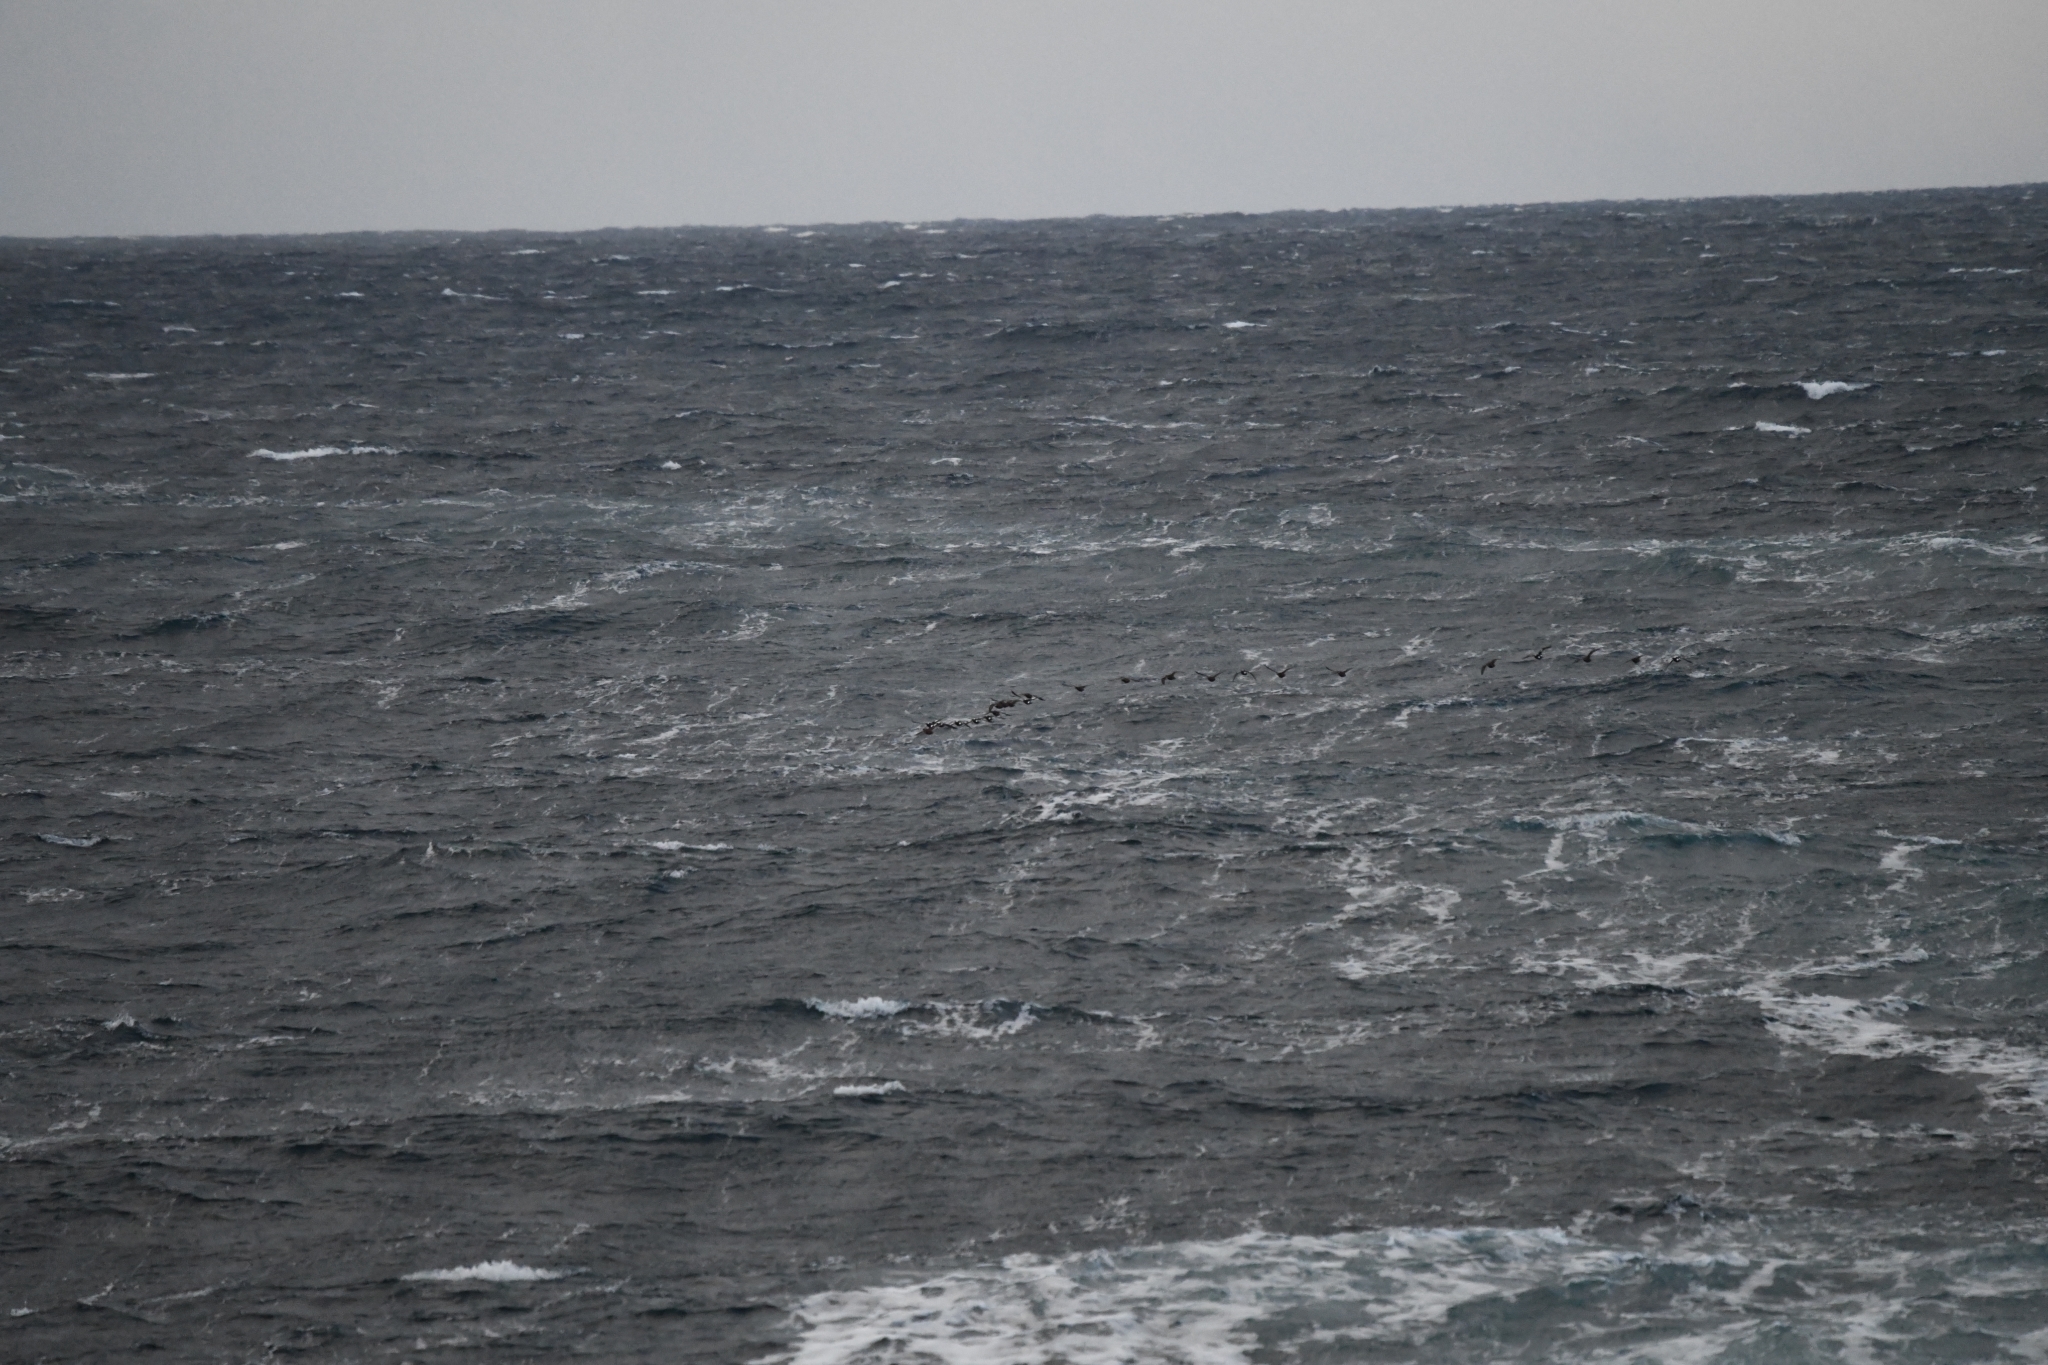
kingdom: Animalia
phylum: Chordata
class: Aves
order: Anseriformes
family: Anatidae
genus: Somateria
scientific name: Somateria spectabilis
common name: King eider
